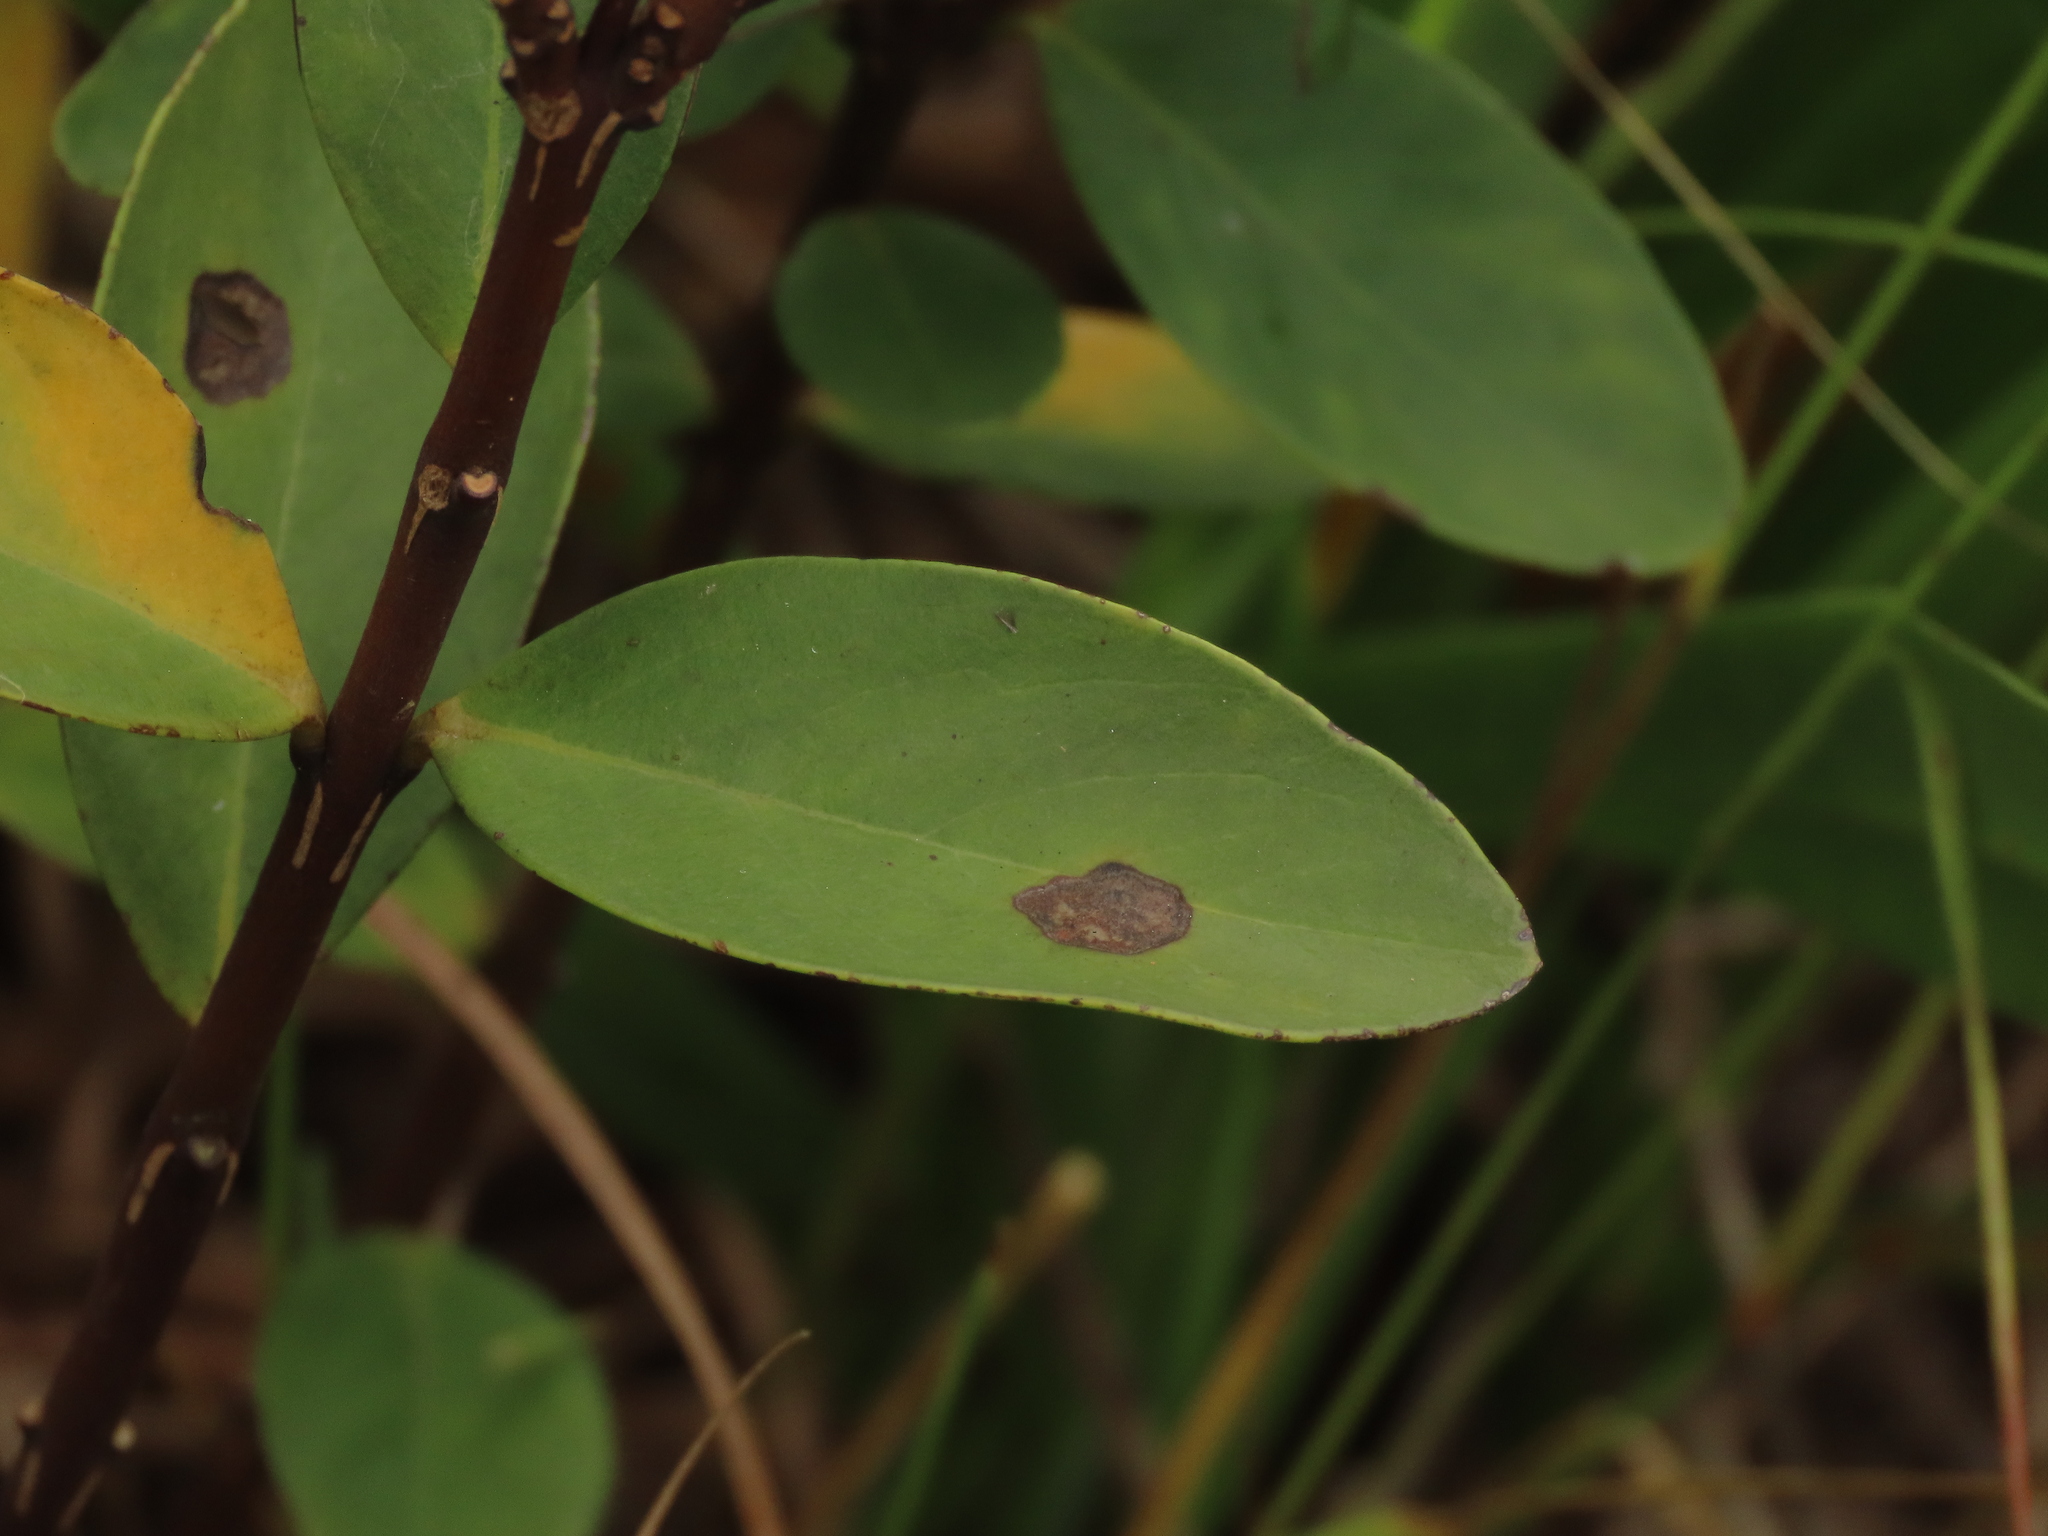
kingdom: Plantae
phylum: Tracheophyta
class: Magnoliopsida
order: Malvales
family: Thymelaeaceae
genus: Wikstroemia
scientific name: Wikstroemia indica
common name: Tiebush
